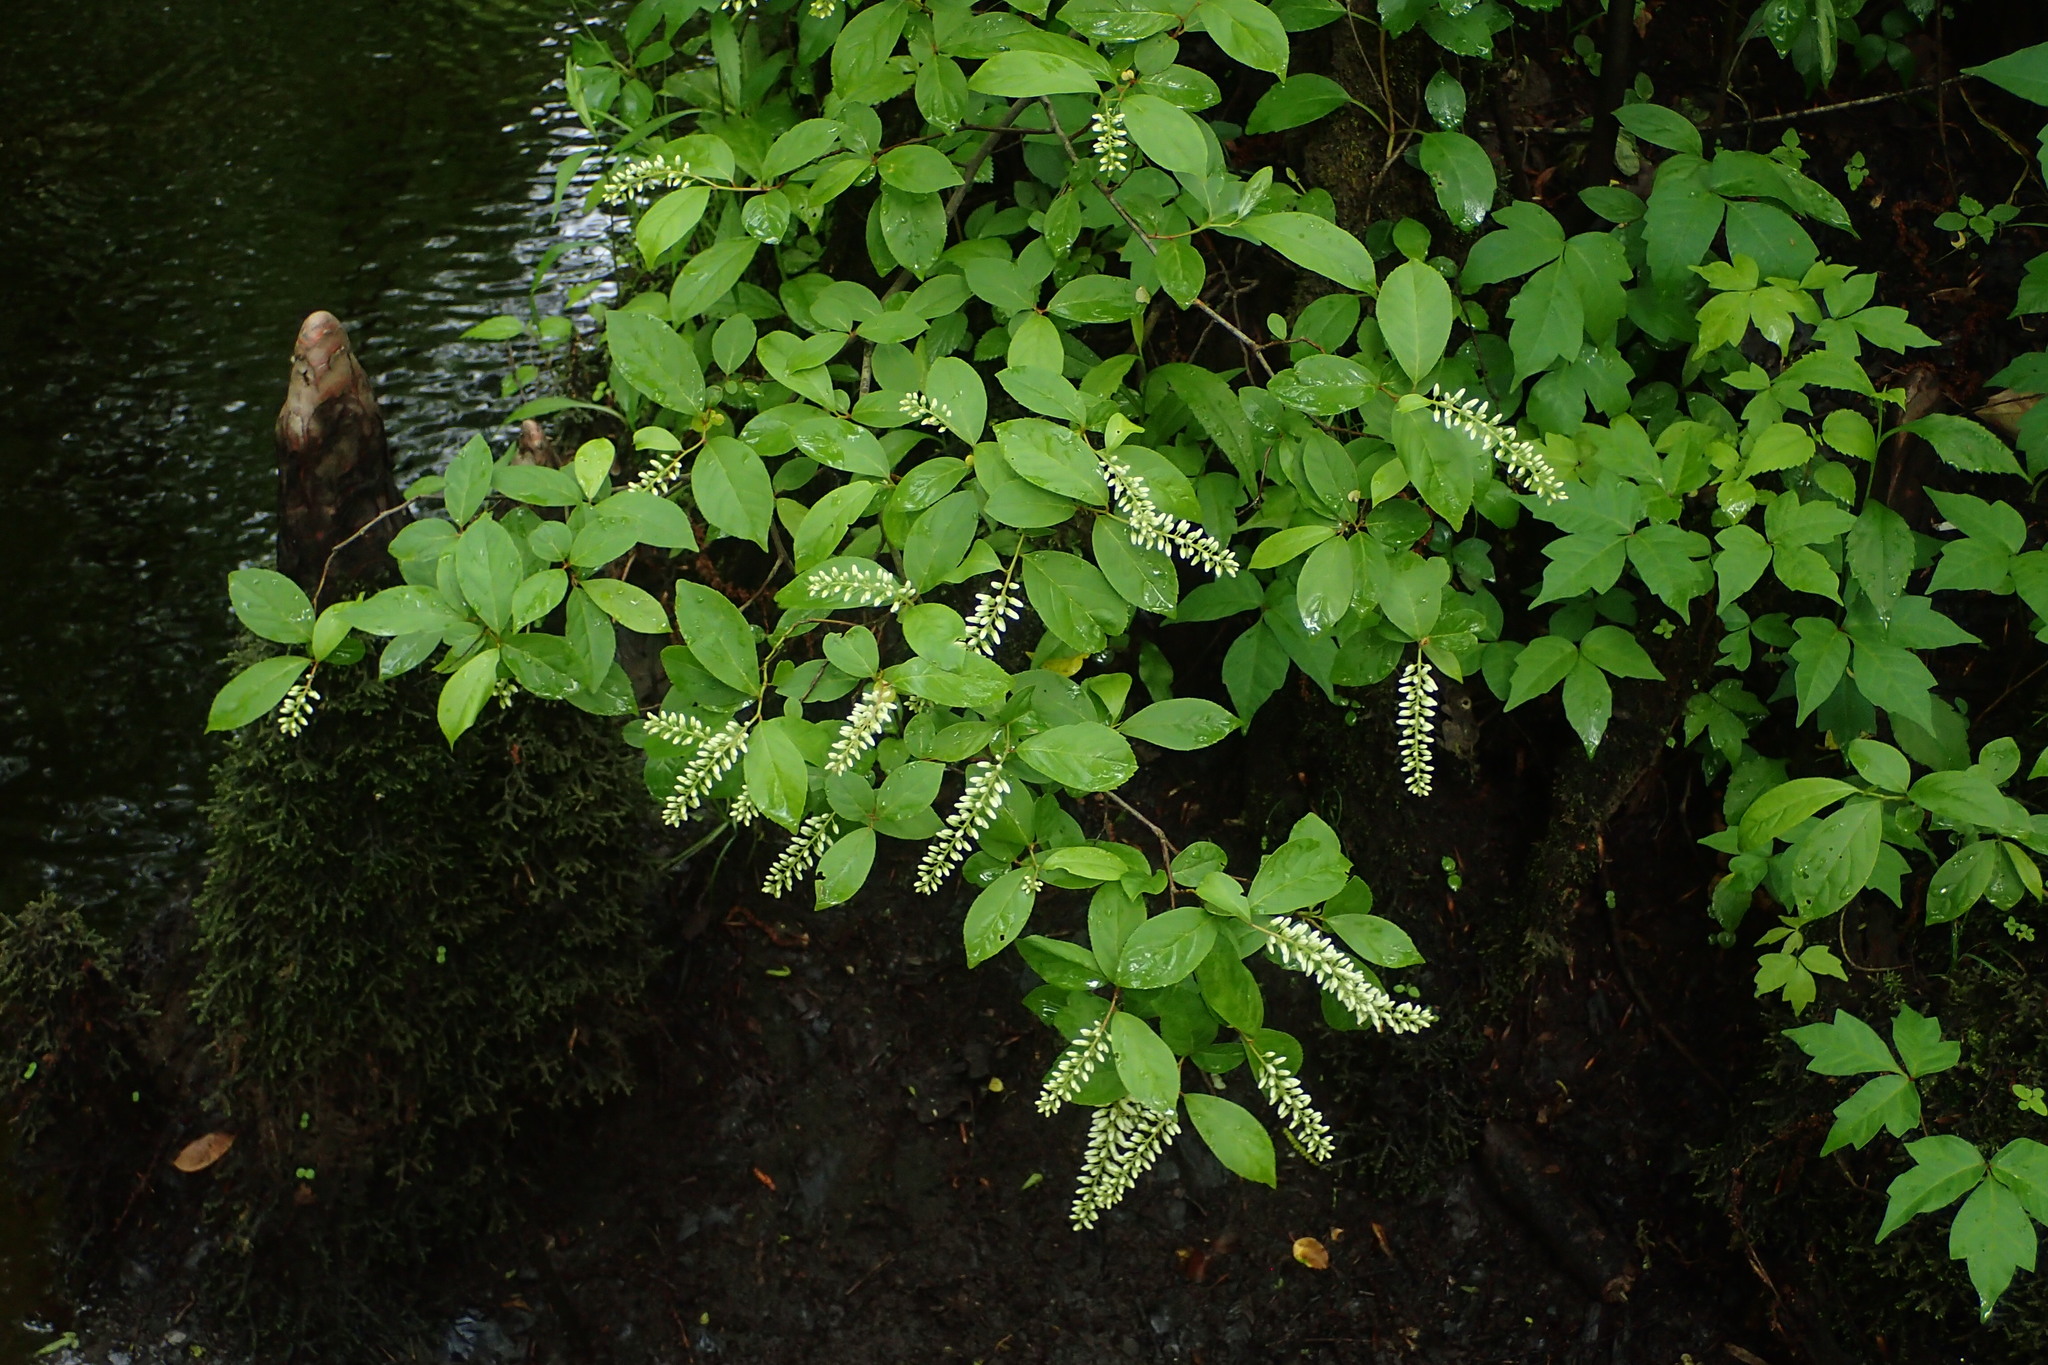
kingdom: Plantae
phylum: Tracheophyta
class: Magnoliopsida
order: Saxifragales
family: Iteaceae
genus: Itea
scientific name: Itea virginica
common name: Sweetspire
